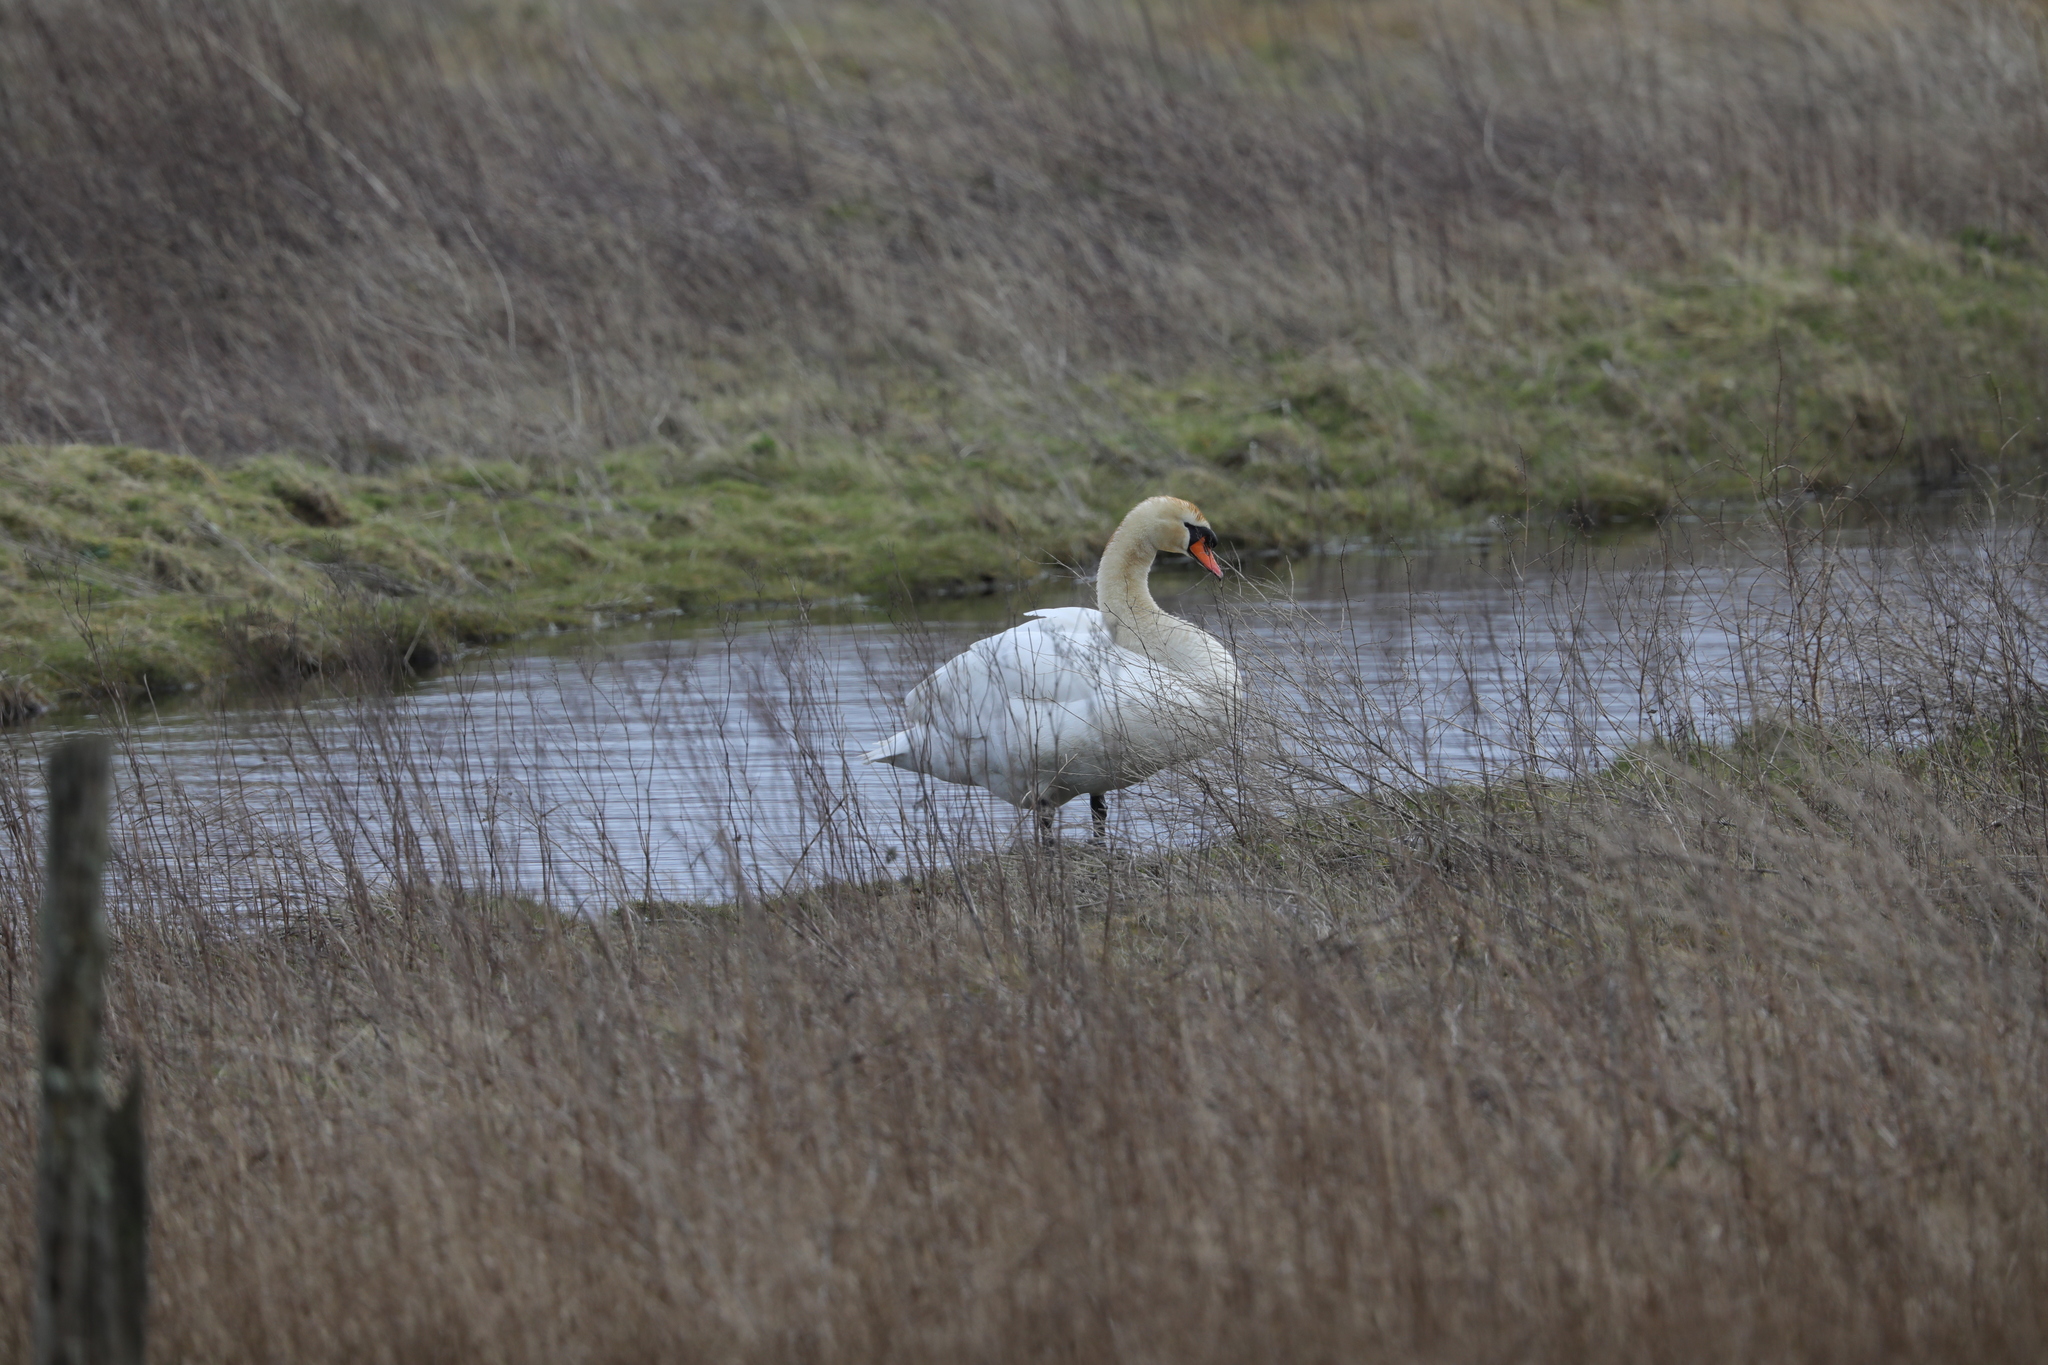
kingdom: Animalia
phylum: Chordata
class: Aves
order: Anseriformes
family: Anatidae
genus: Cygnus
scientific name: Cygnus olor
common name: Mute swan
